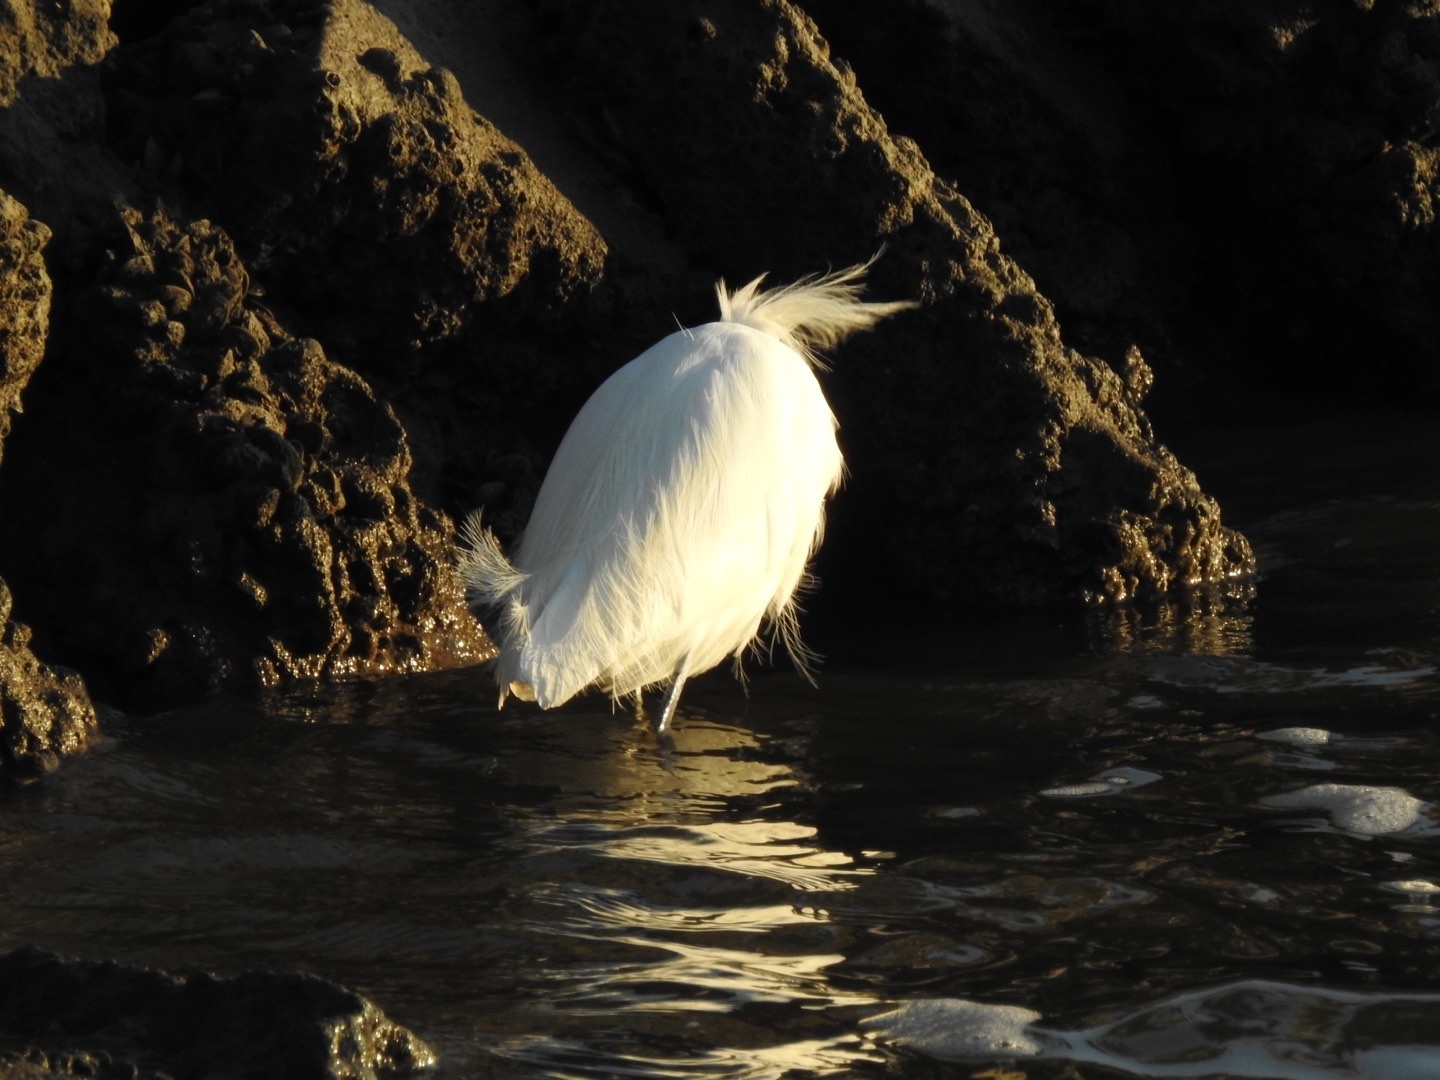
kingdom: Animalia
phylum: Chordata
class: Aves
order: Pelecaniformes
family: Ardeidae
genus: Egretta
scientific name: Egretta thula
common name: Snowy egret
